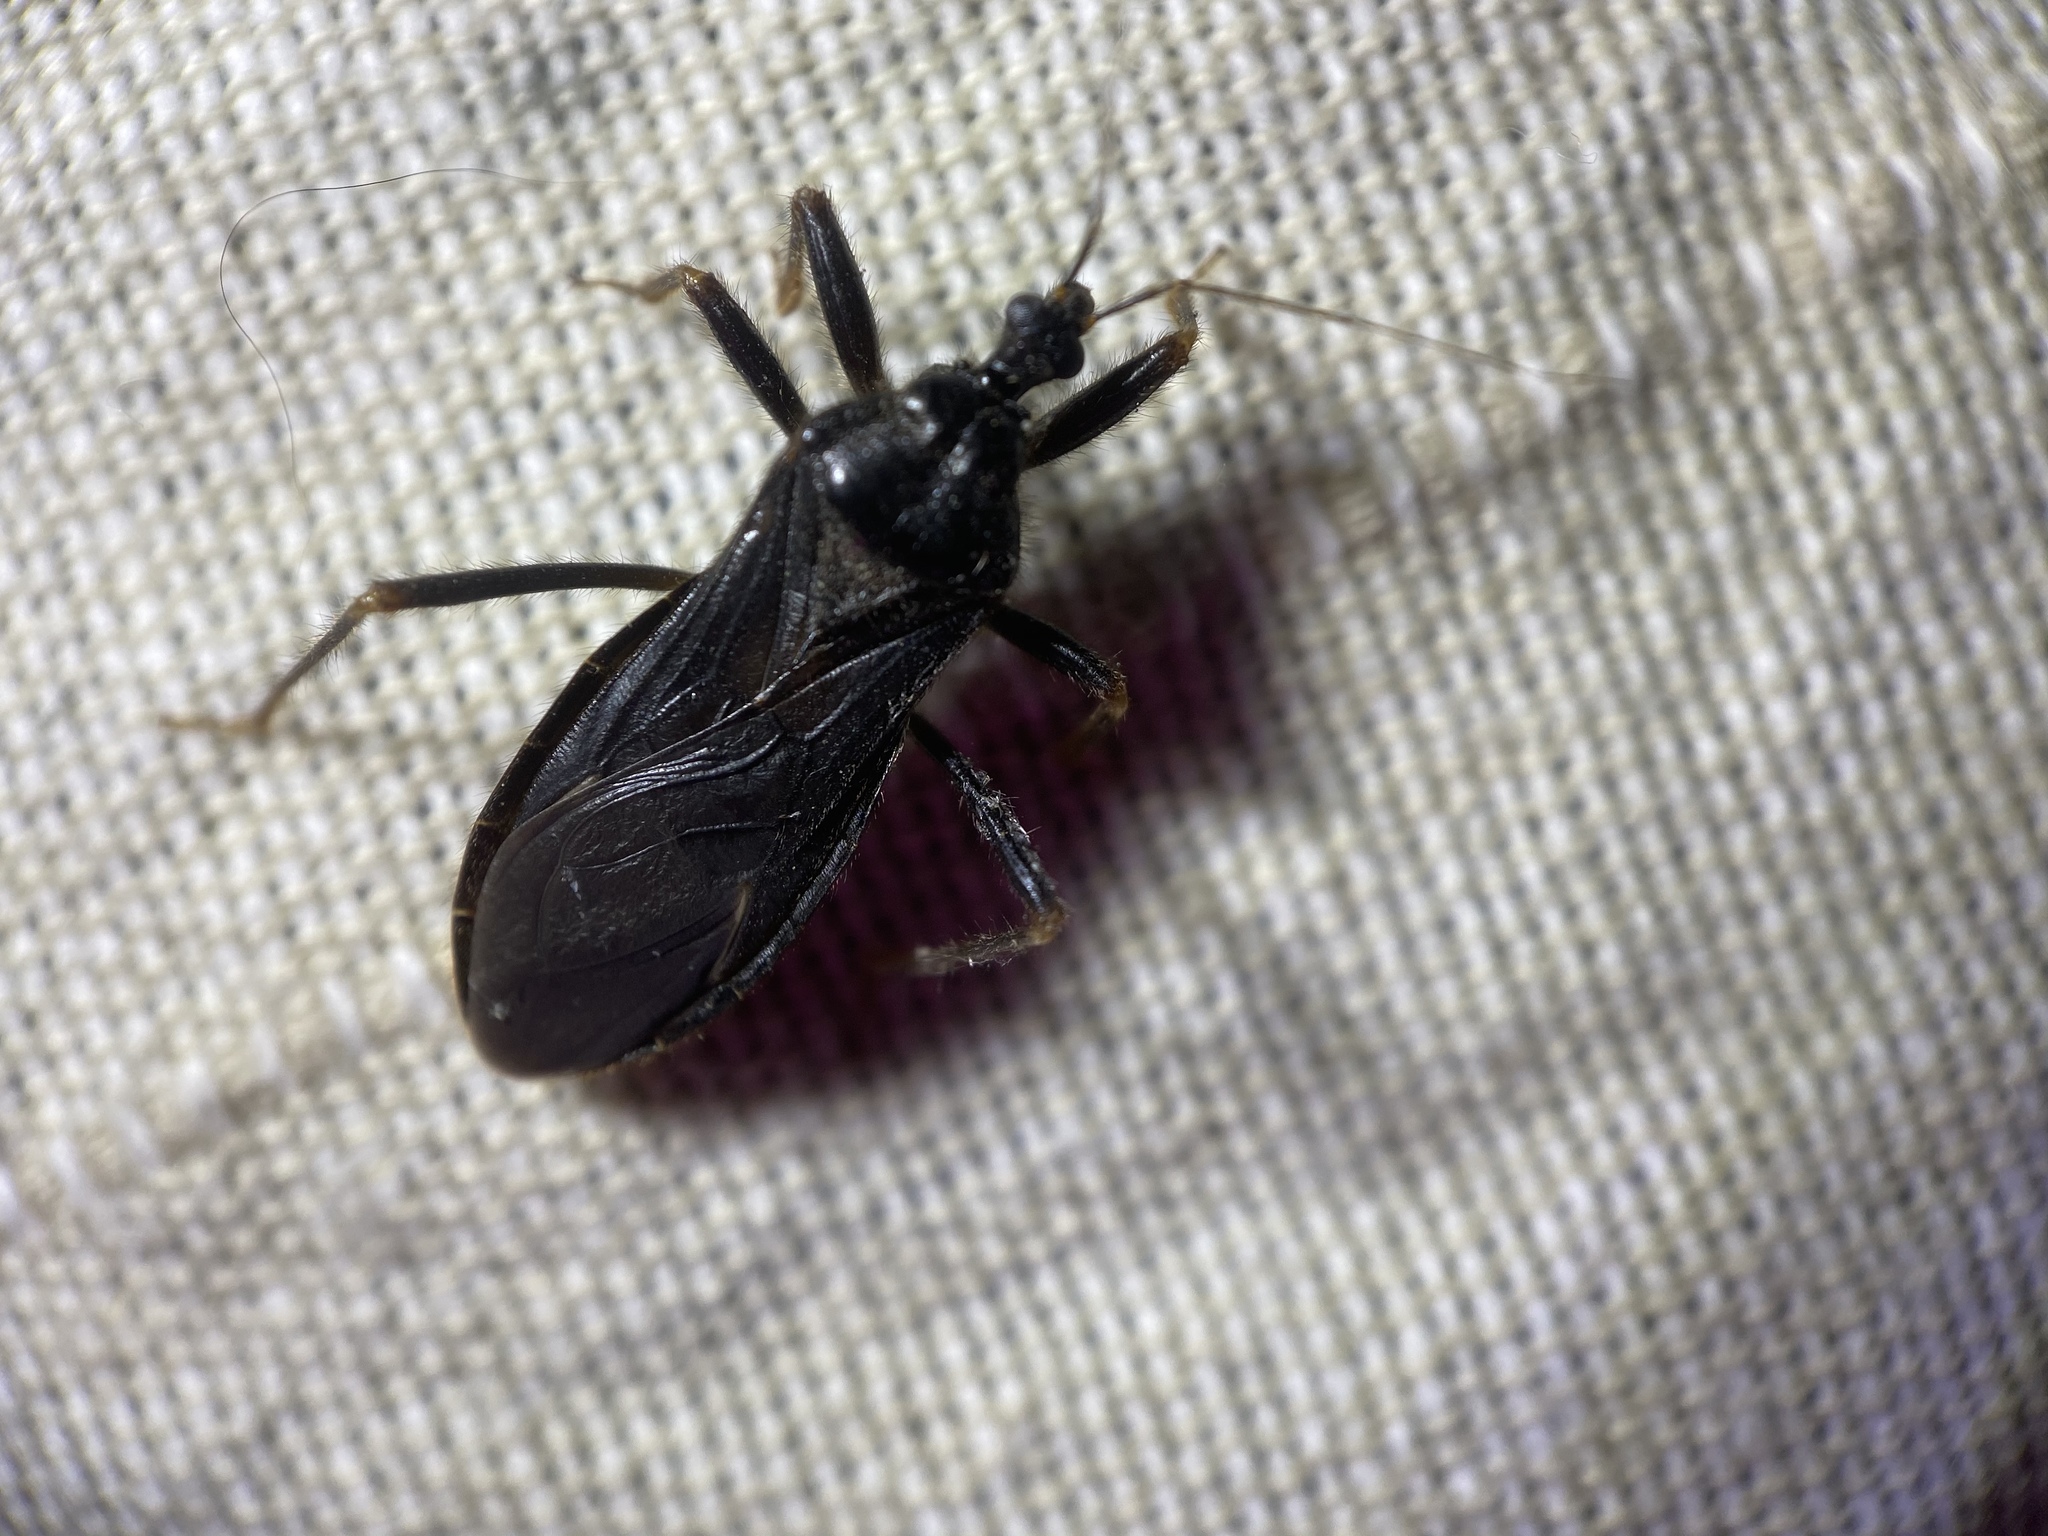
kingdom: Animalia
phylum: Arthropoda
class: Insecta
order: Hemiptera
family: Reduviidae
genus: Reduvius
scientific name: Reduvius personatus
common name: Masked hunter
